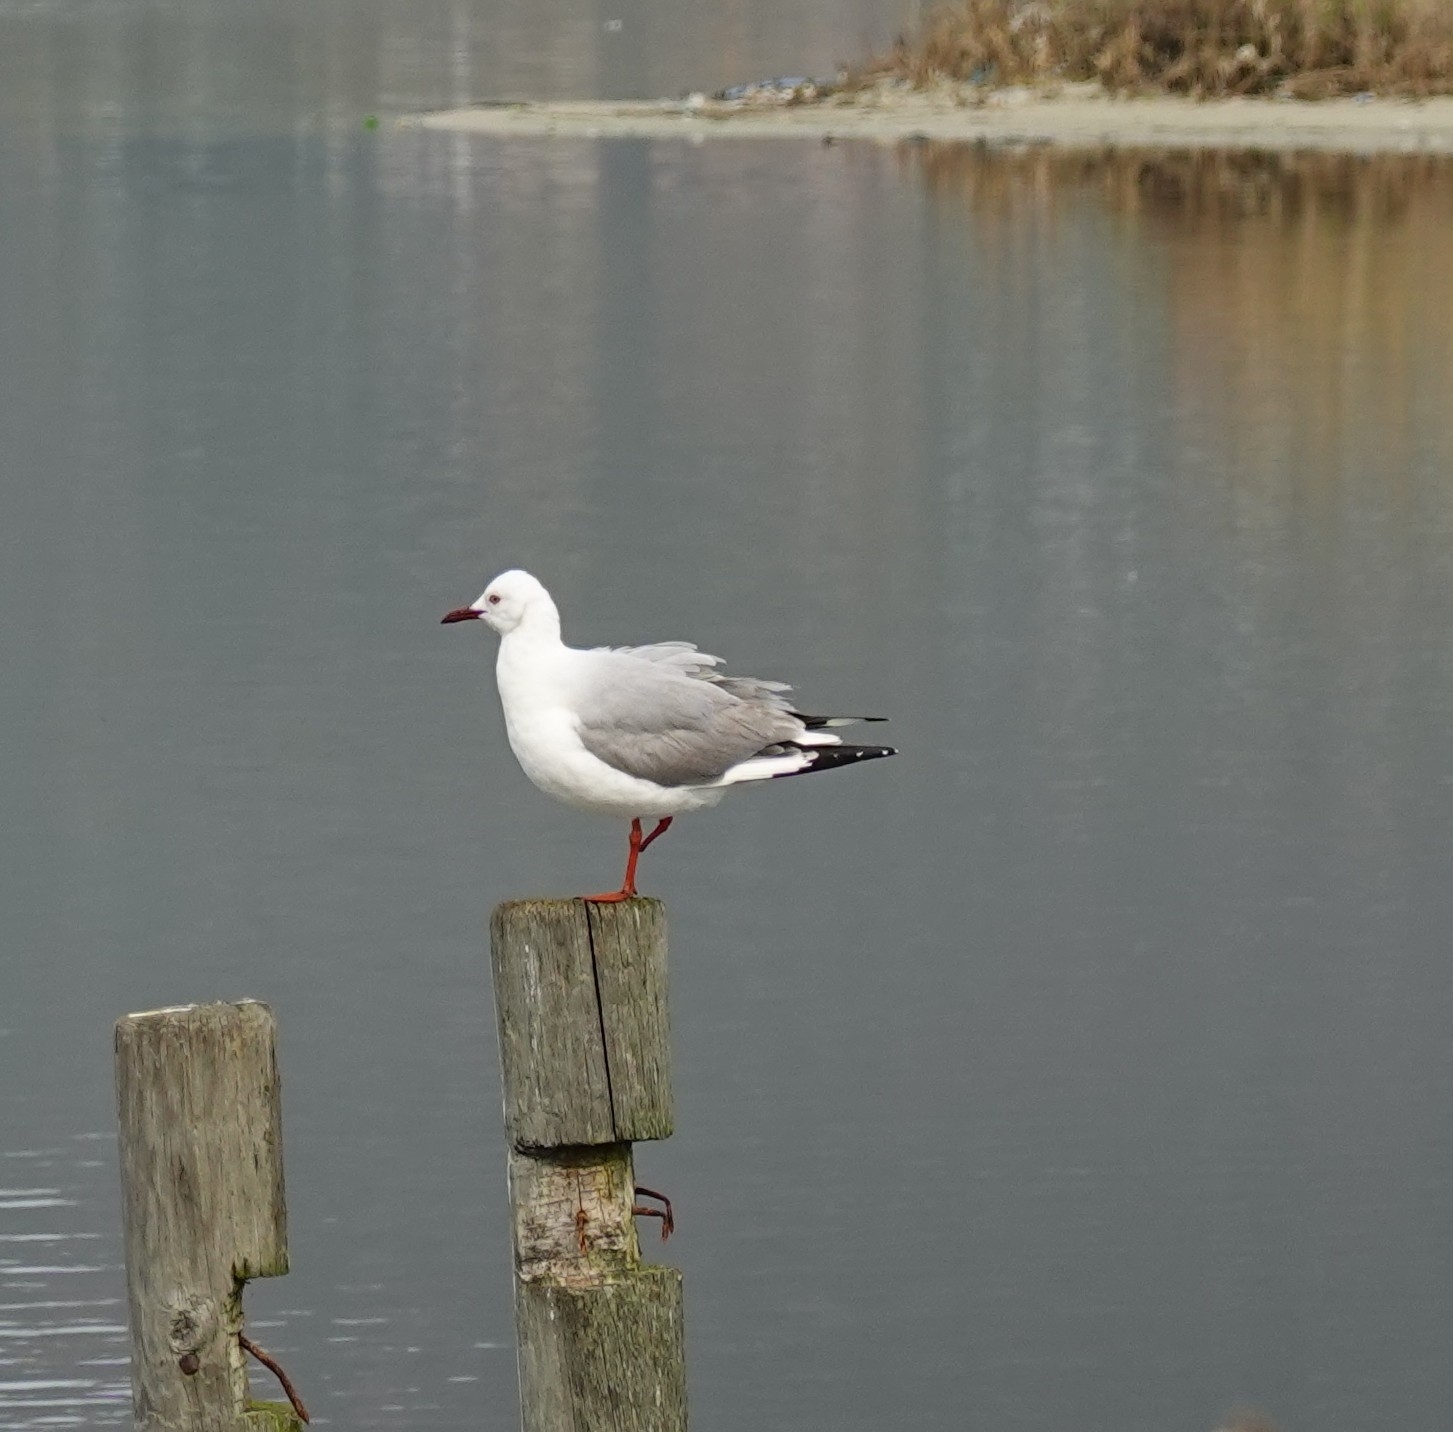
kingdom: Animalia
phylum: Chordata
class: Aves
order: Charadriiformes
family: Laridae
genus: Chroicocephalus
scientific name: Chroicocephalus cirrocephalus
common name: Grey-headed gull
